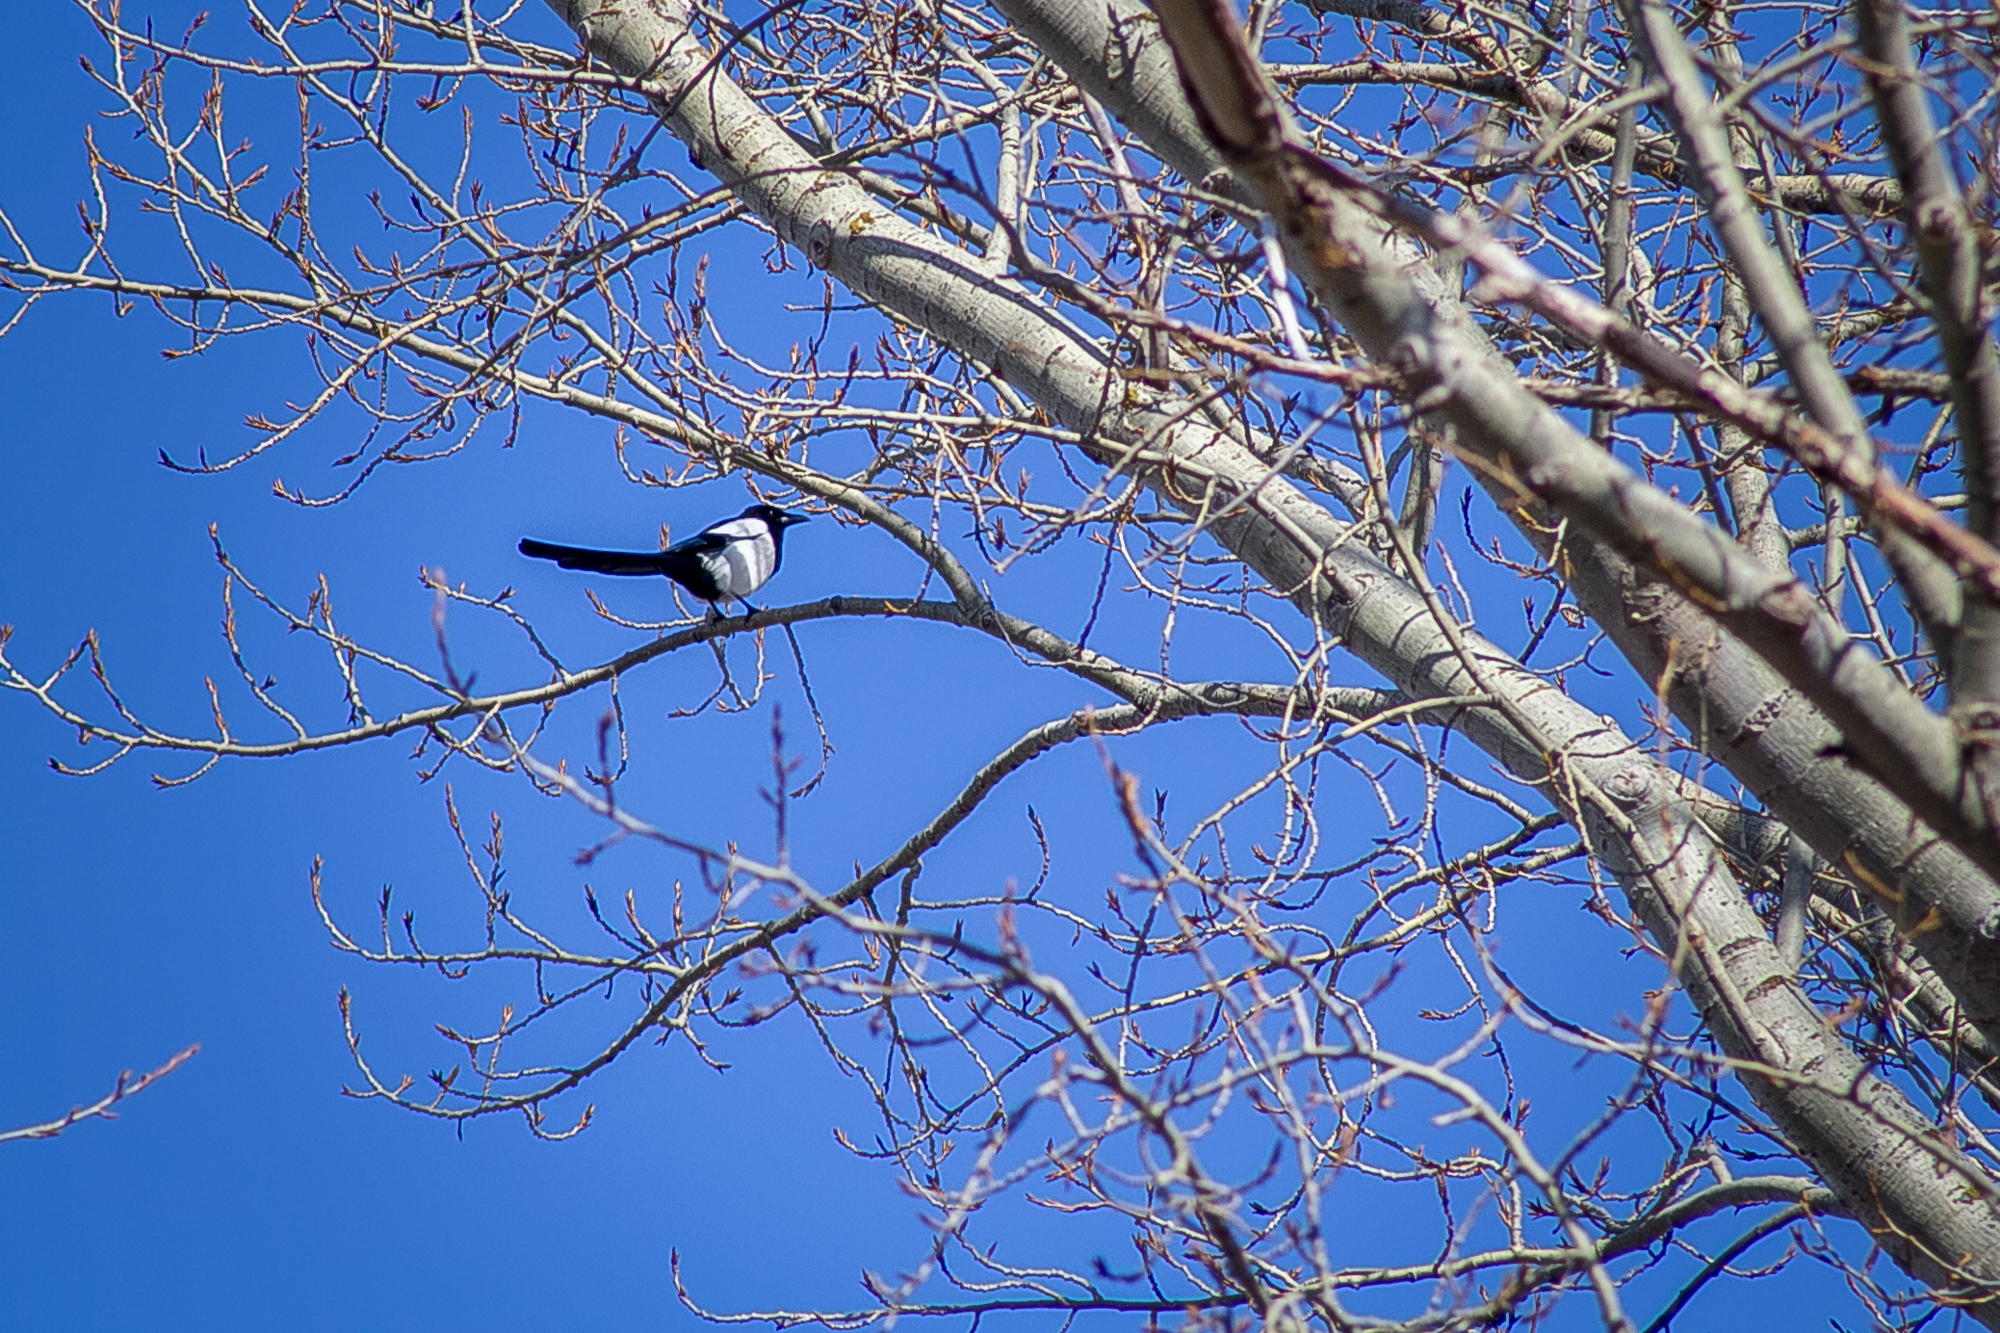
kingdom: Animalia
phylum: Chordata
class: Aves
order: Passeriformes
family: Corvidae
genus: Pica
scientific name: Pica pica
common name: Eurasian magpie
